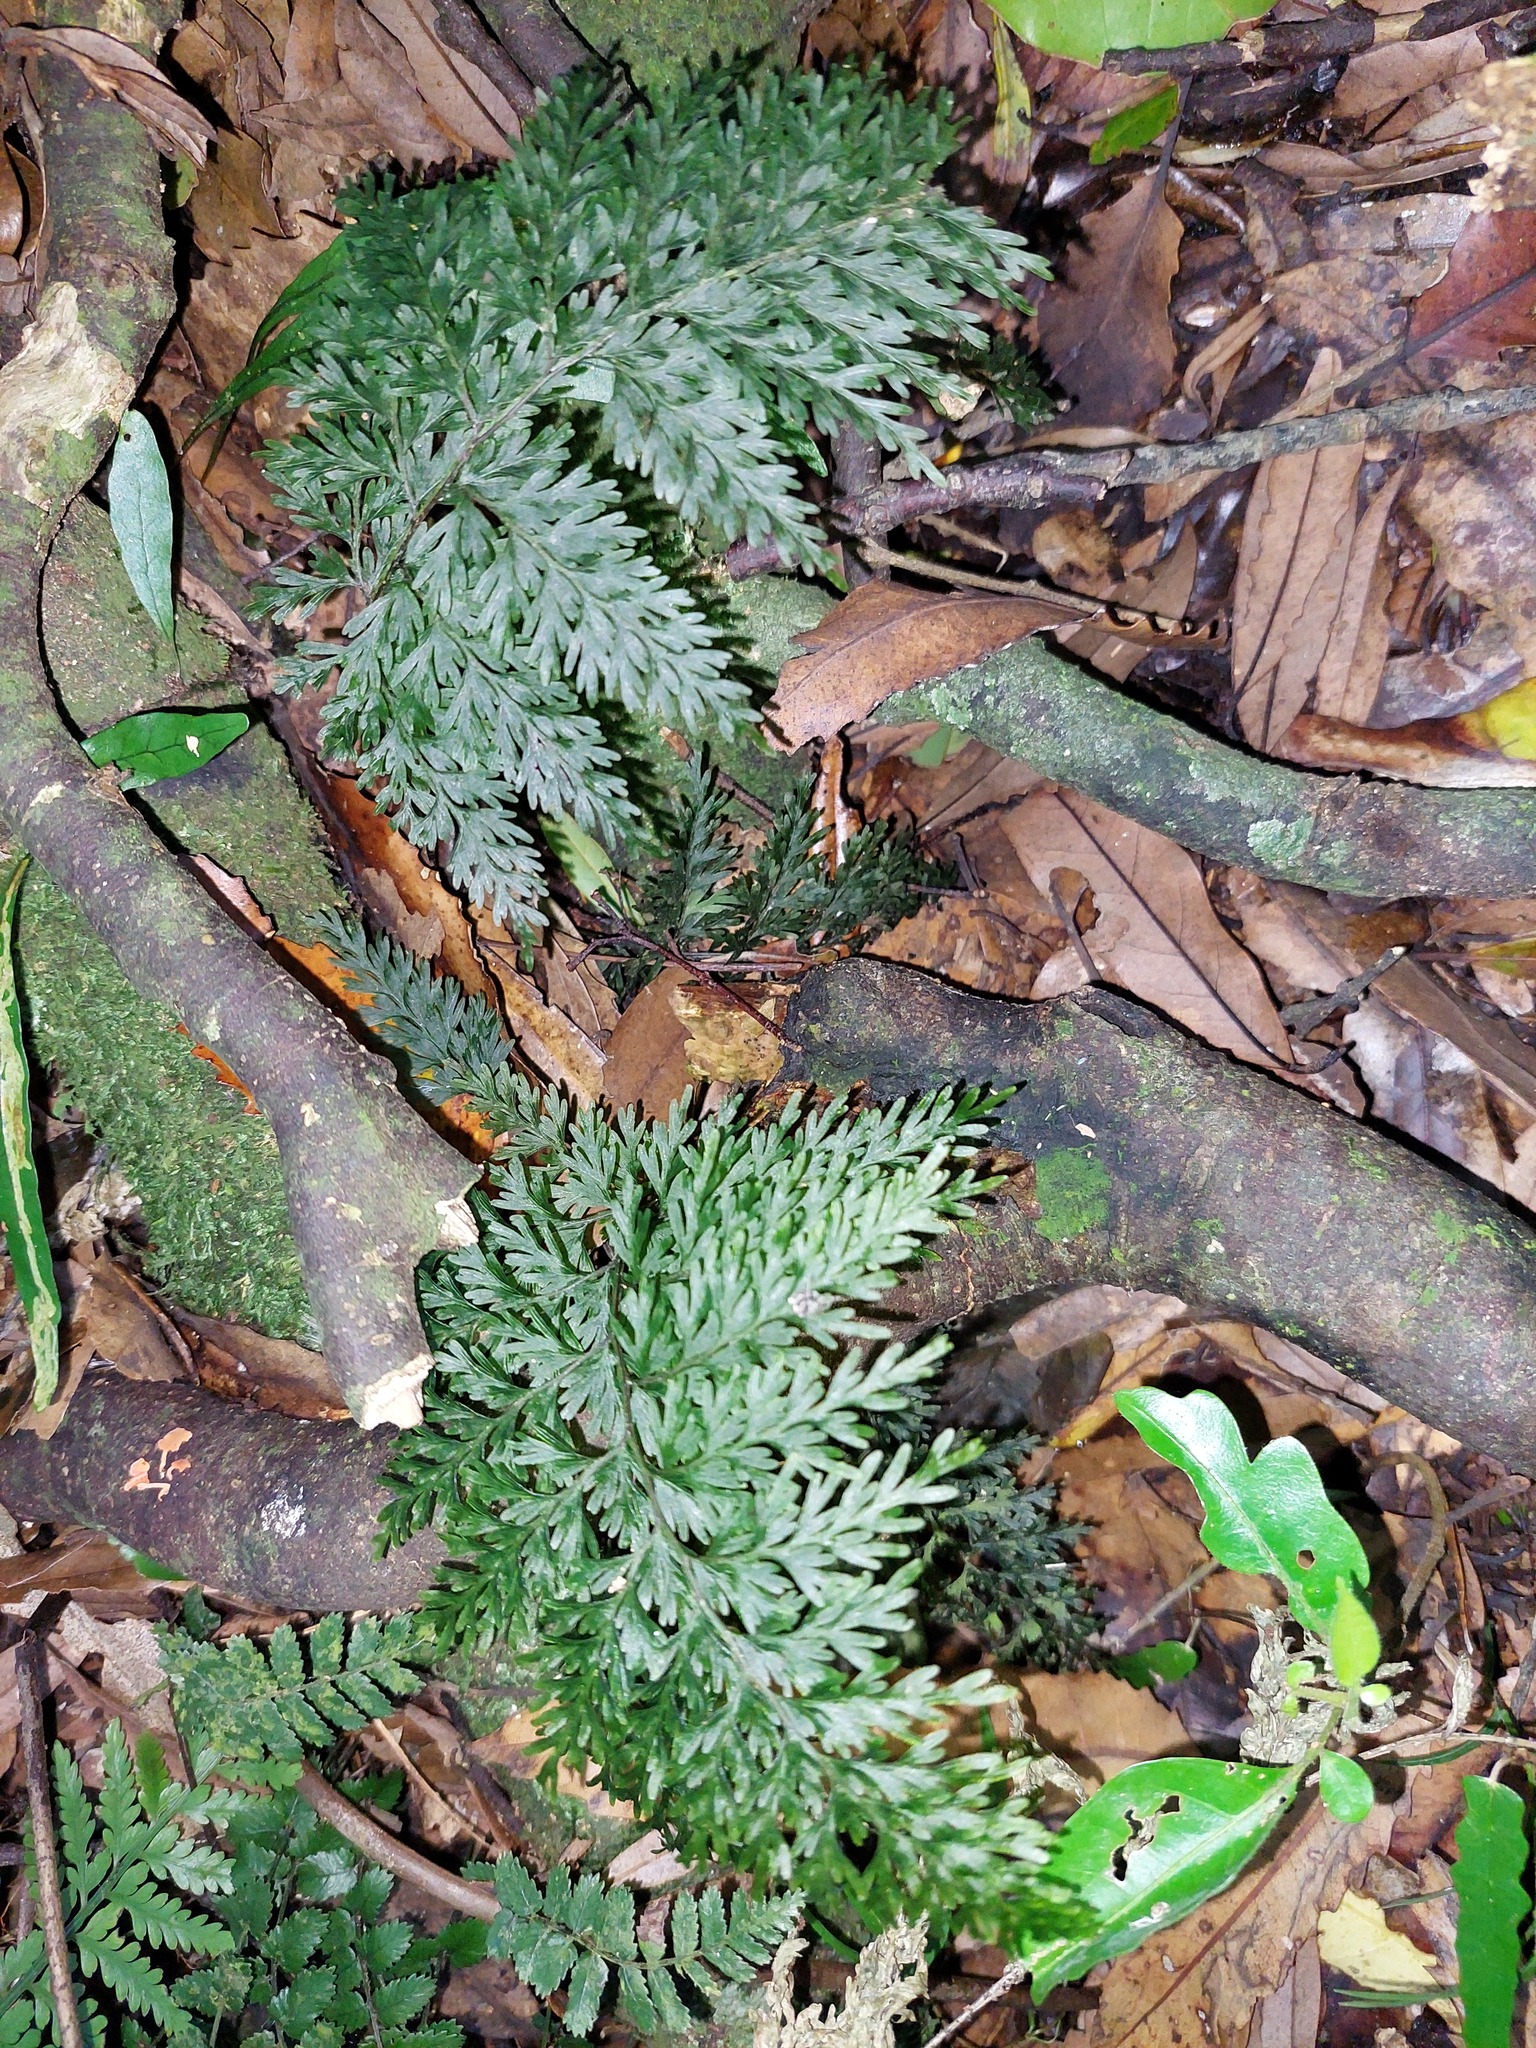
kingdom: Plantae
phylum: Tracheophyta
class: Polypodiopsida
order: Hymenophyllales
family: Hymenophyllaceae
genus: Hymenophyllum
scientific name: Hymenophyllum demissum
